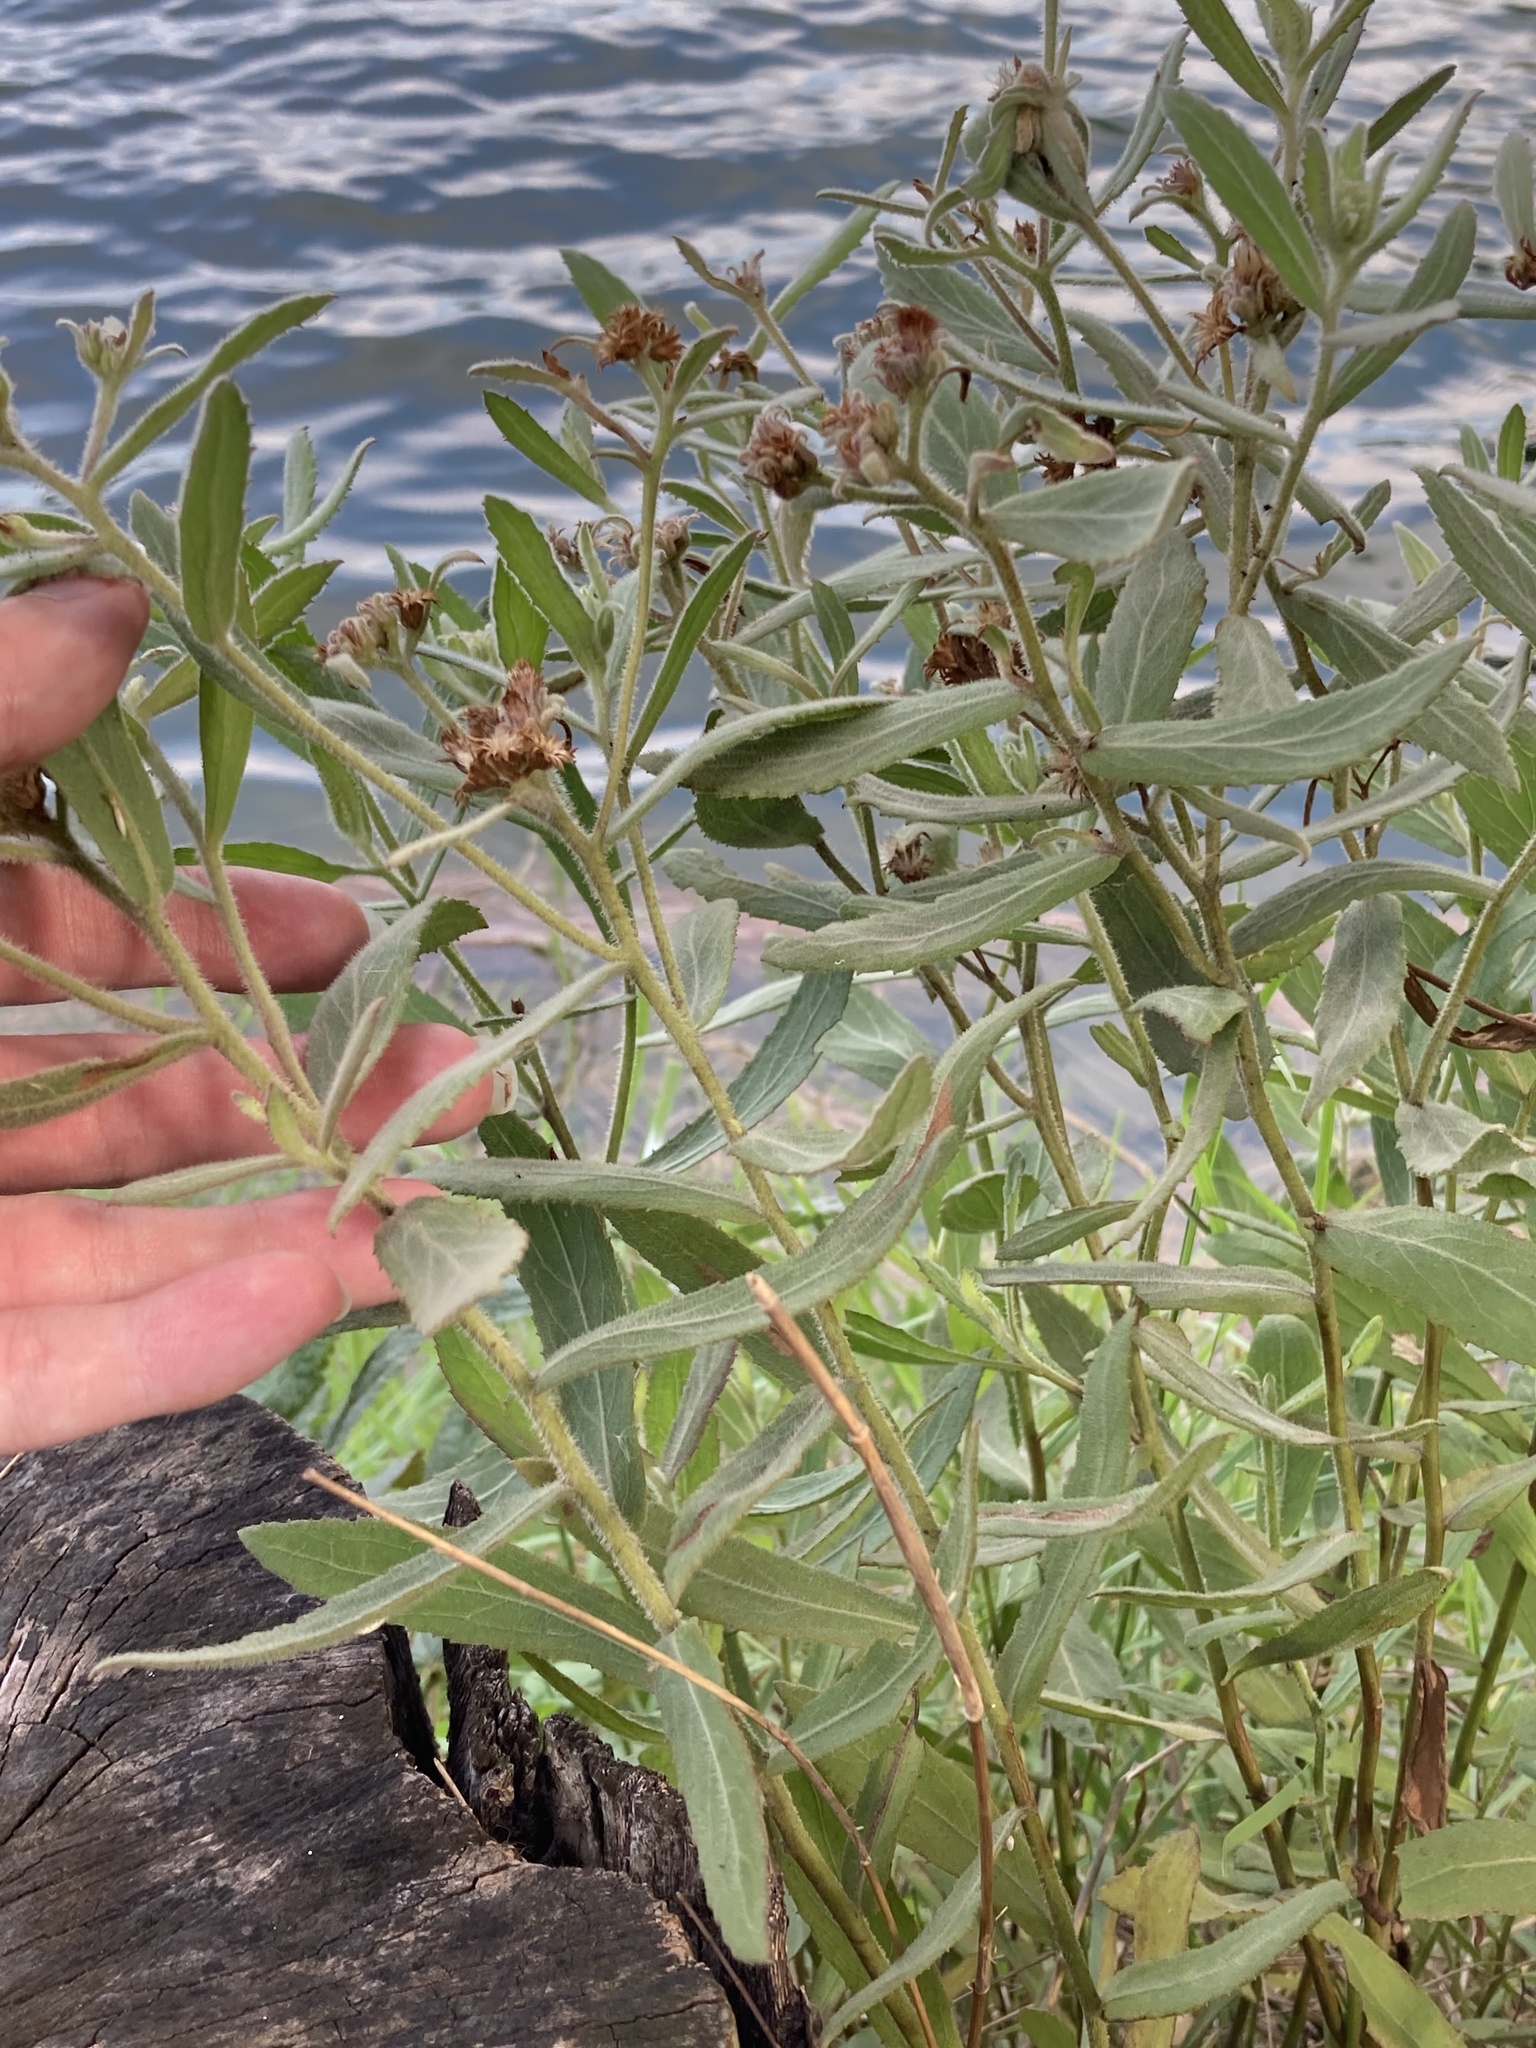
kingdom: Plantae
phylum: Tracheophyta
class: Magnoliopsida
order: Asterales
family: Asteraceae
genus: Pluchea
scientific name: Pluchea baccharis
